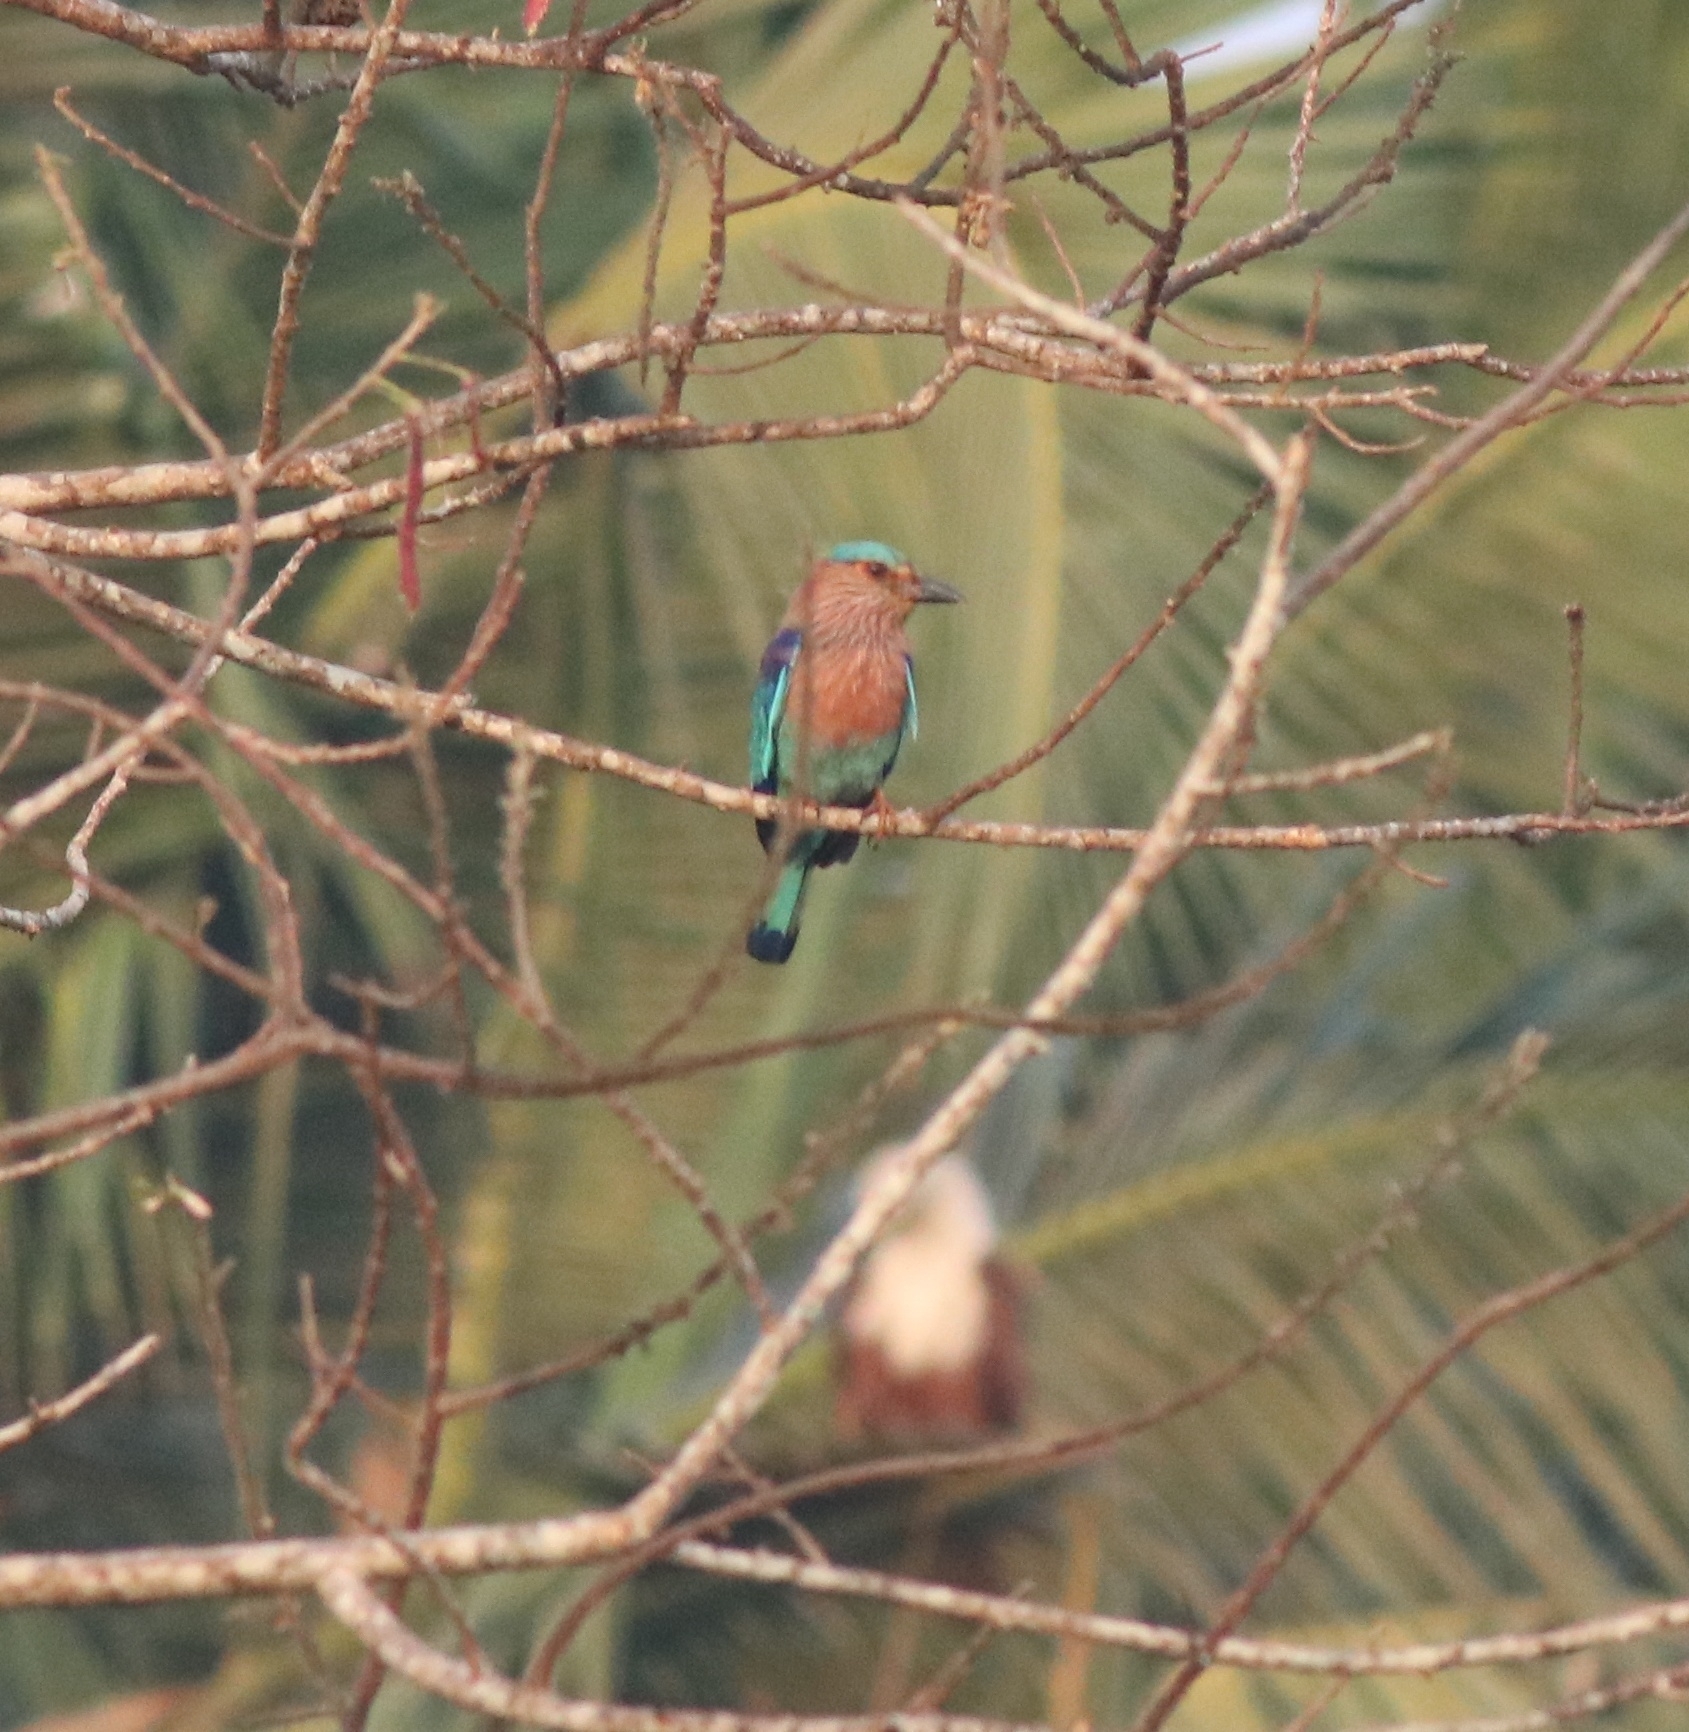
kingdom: Animalia
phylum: Chordata
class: Aves
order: Coraciiformes
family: Coraciidae
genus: Coracias
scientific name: Coracias benghalensis
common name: Indian roller
